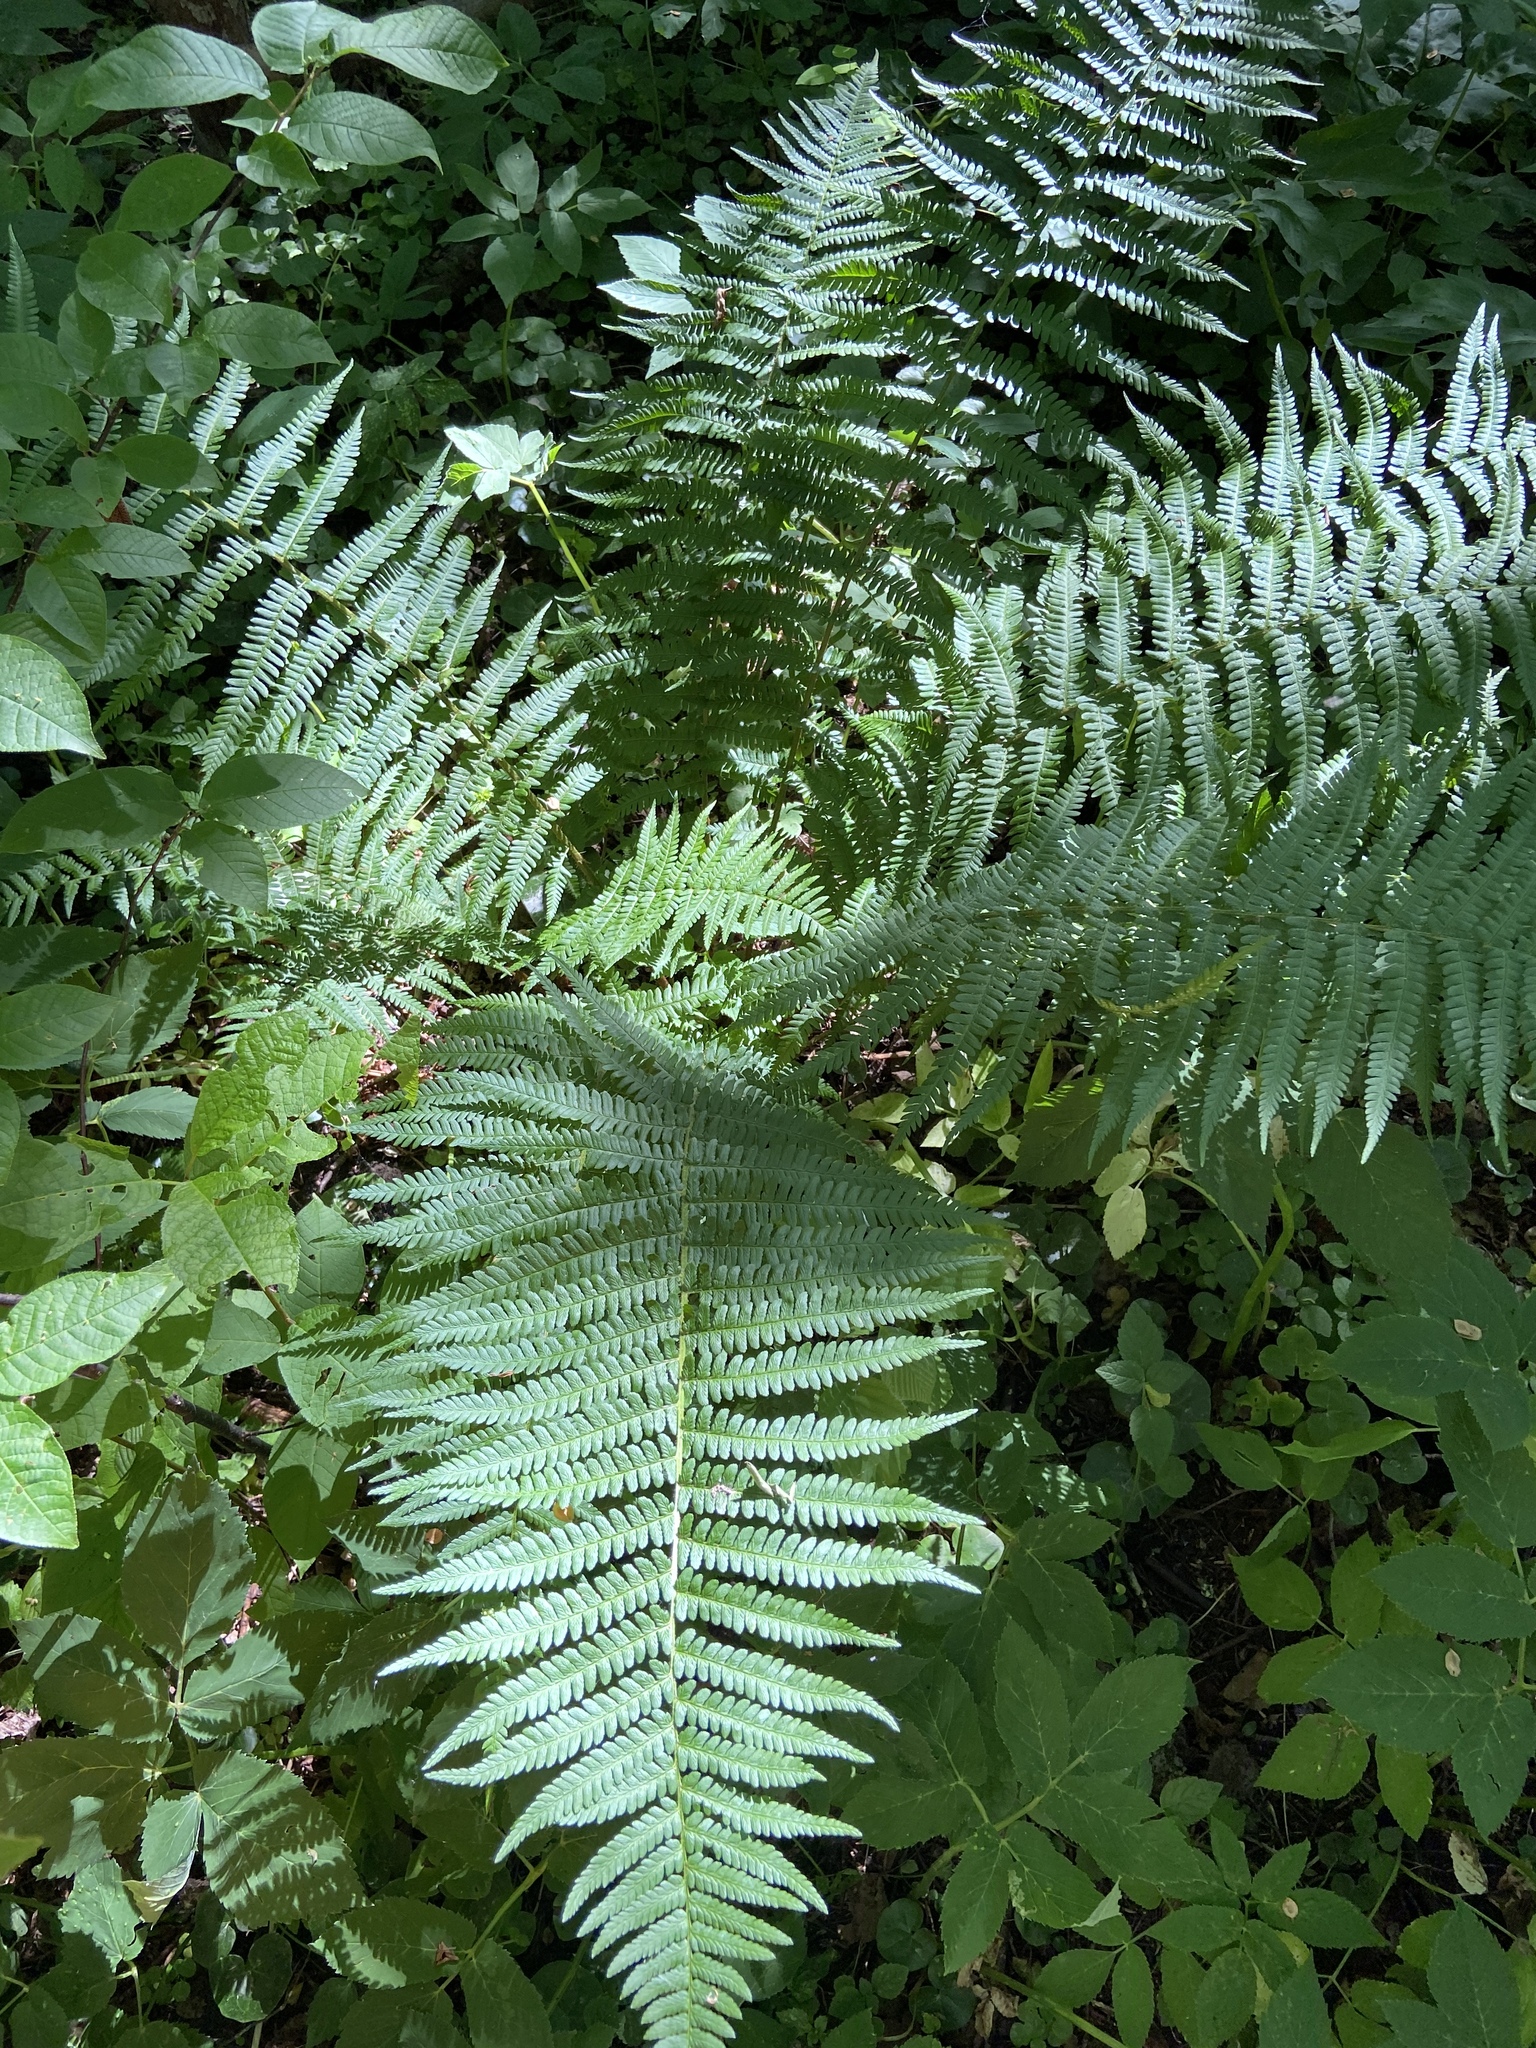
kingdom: Plantae
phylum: Tracheophyta
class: Polypodiopsida
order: Polypodiales
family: Dryopteridaceae
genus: Dryopteris
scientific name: Dryopteris filix-mas
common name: Male fern
